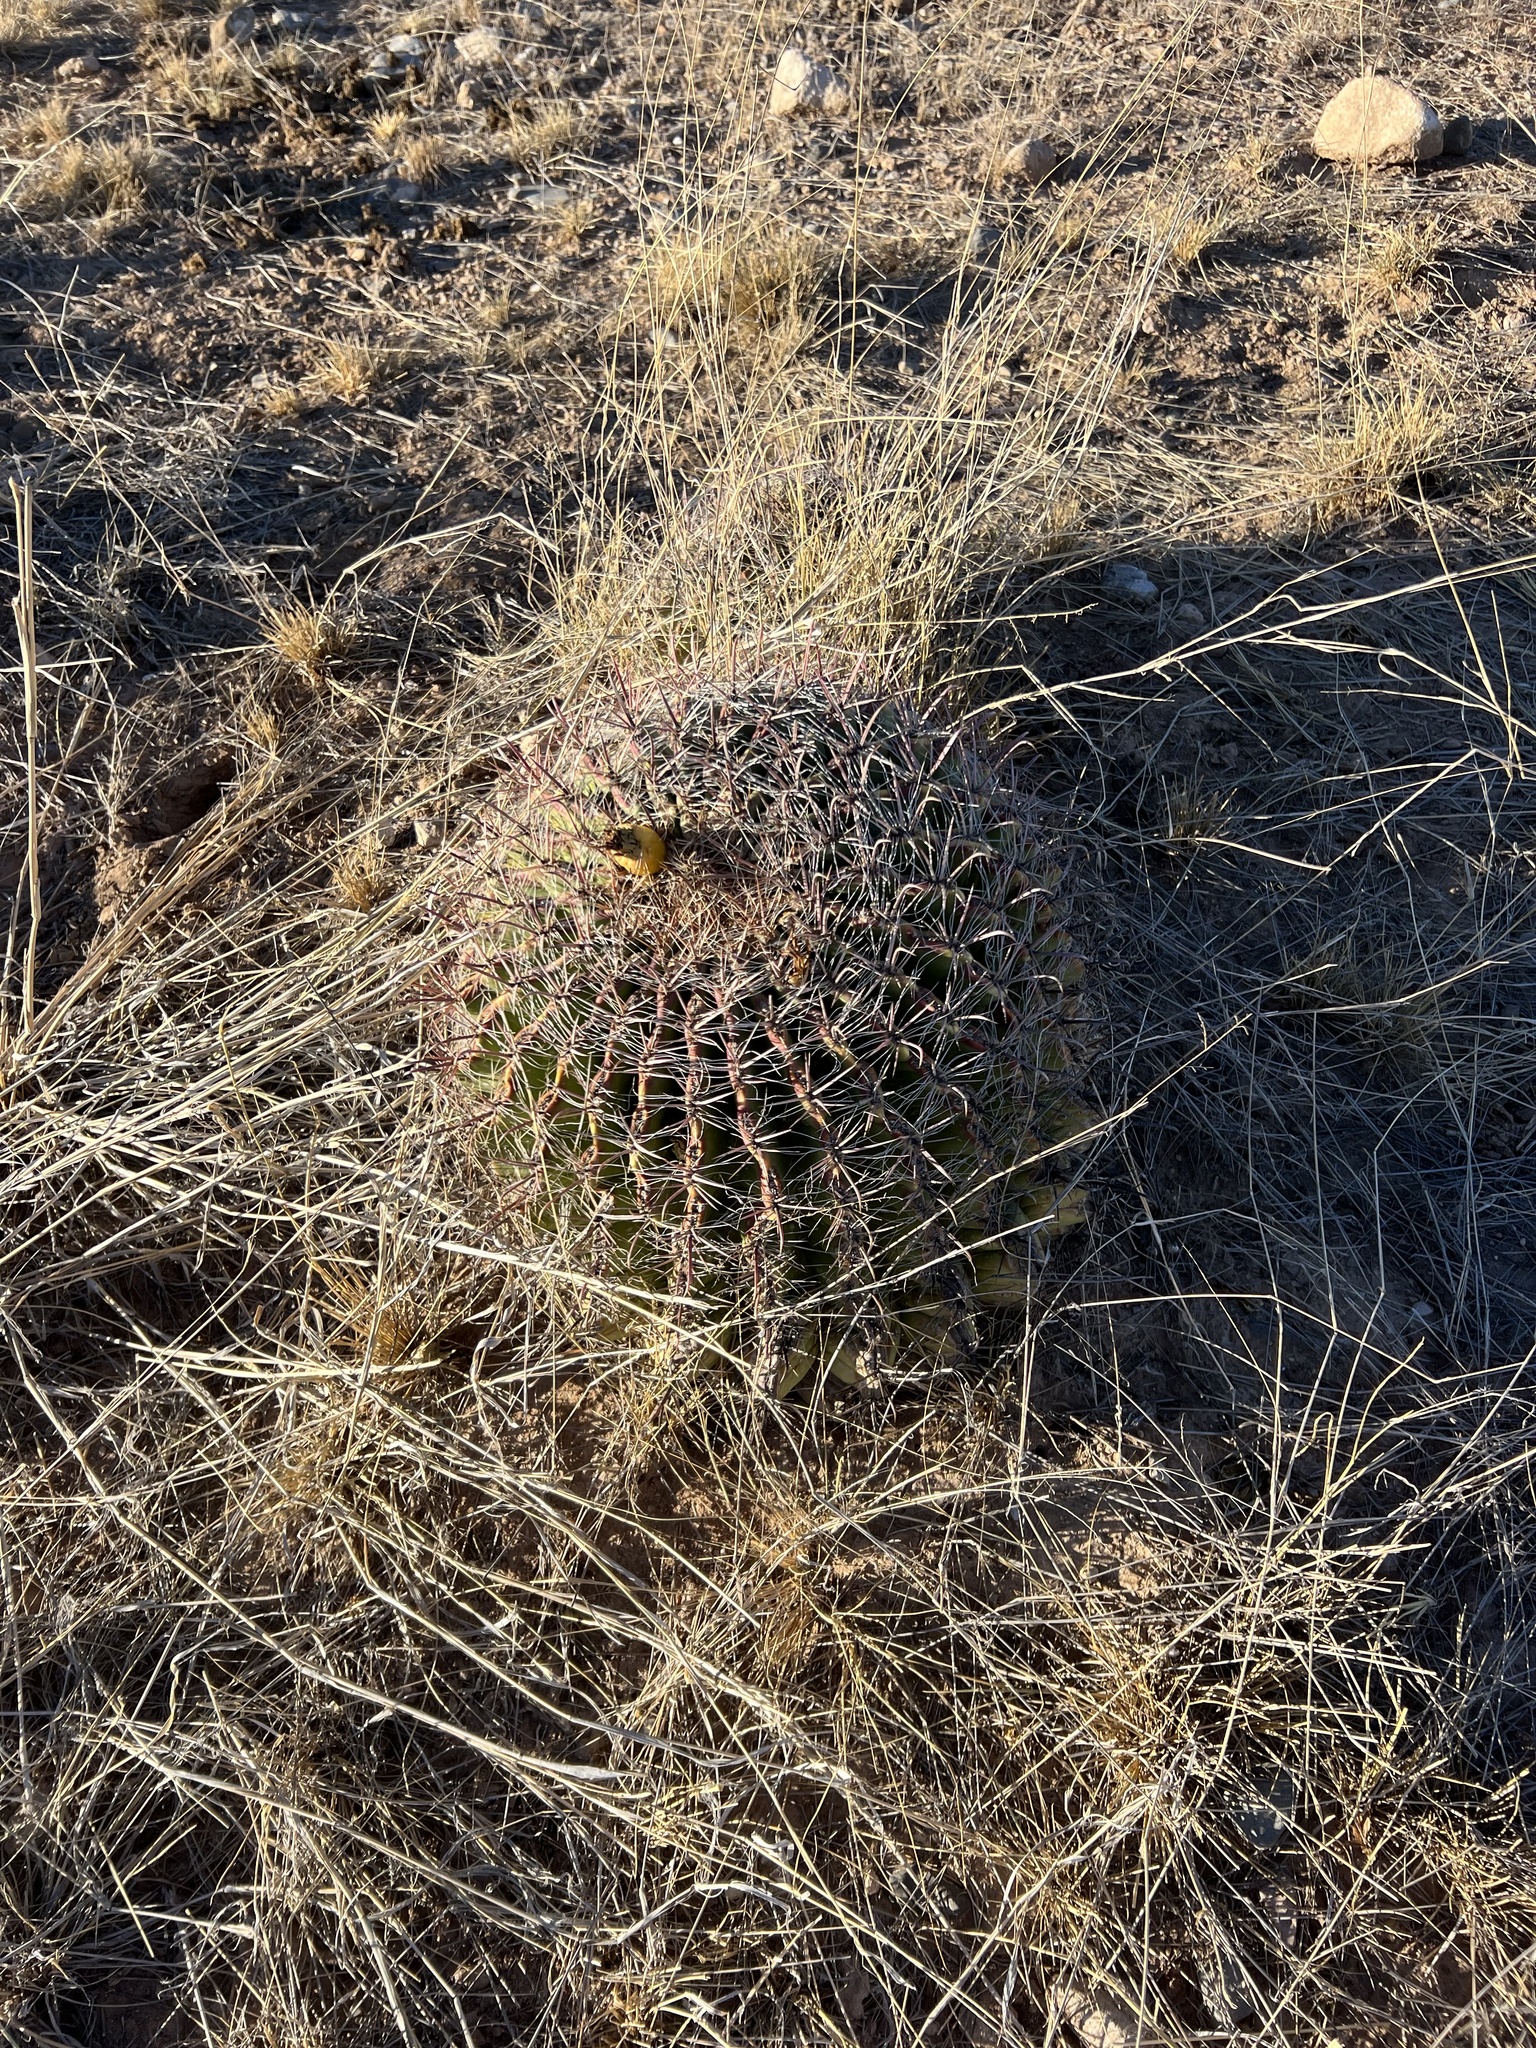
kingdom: Plantae
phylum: Tracheophyta
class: Magnoliopsida
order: Caryophyllales
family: Cactaceae
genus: Ferocactus
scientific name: Ferocactus wislizeni
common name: Candy barrel cactus
